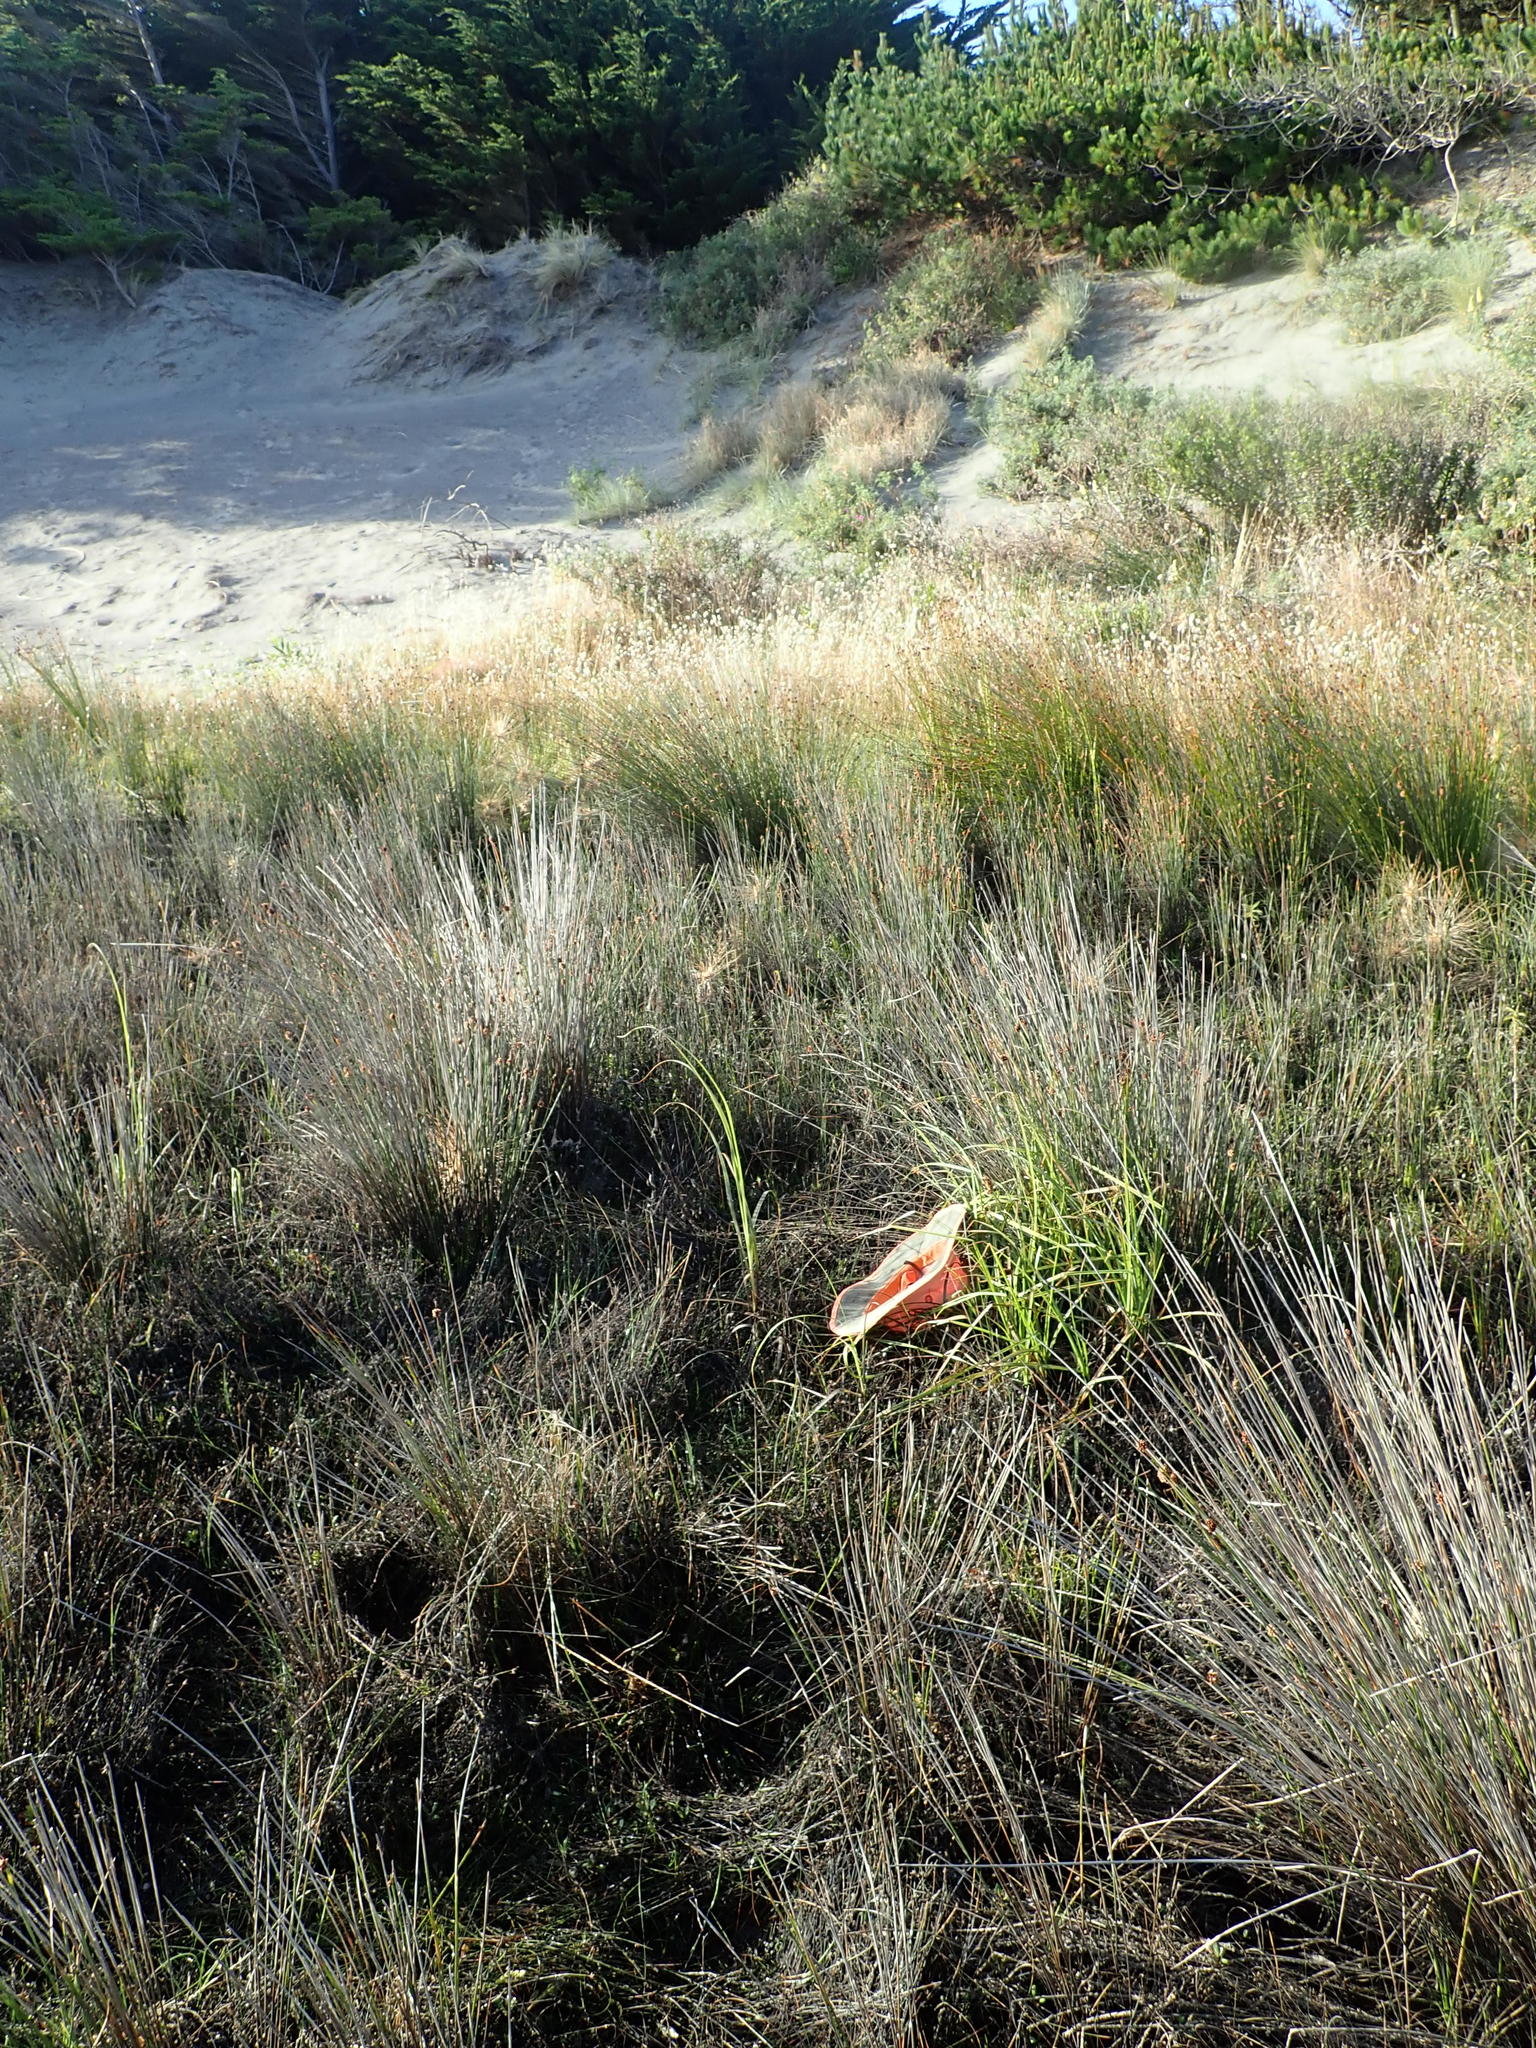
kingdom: Plantae
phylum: Tracheophyta
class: Liliopsida
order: Poales
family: Cyperaceae
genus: Carex
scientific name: Carex otrubae
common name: False fox-sedge
